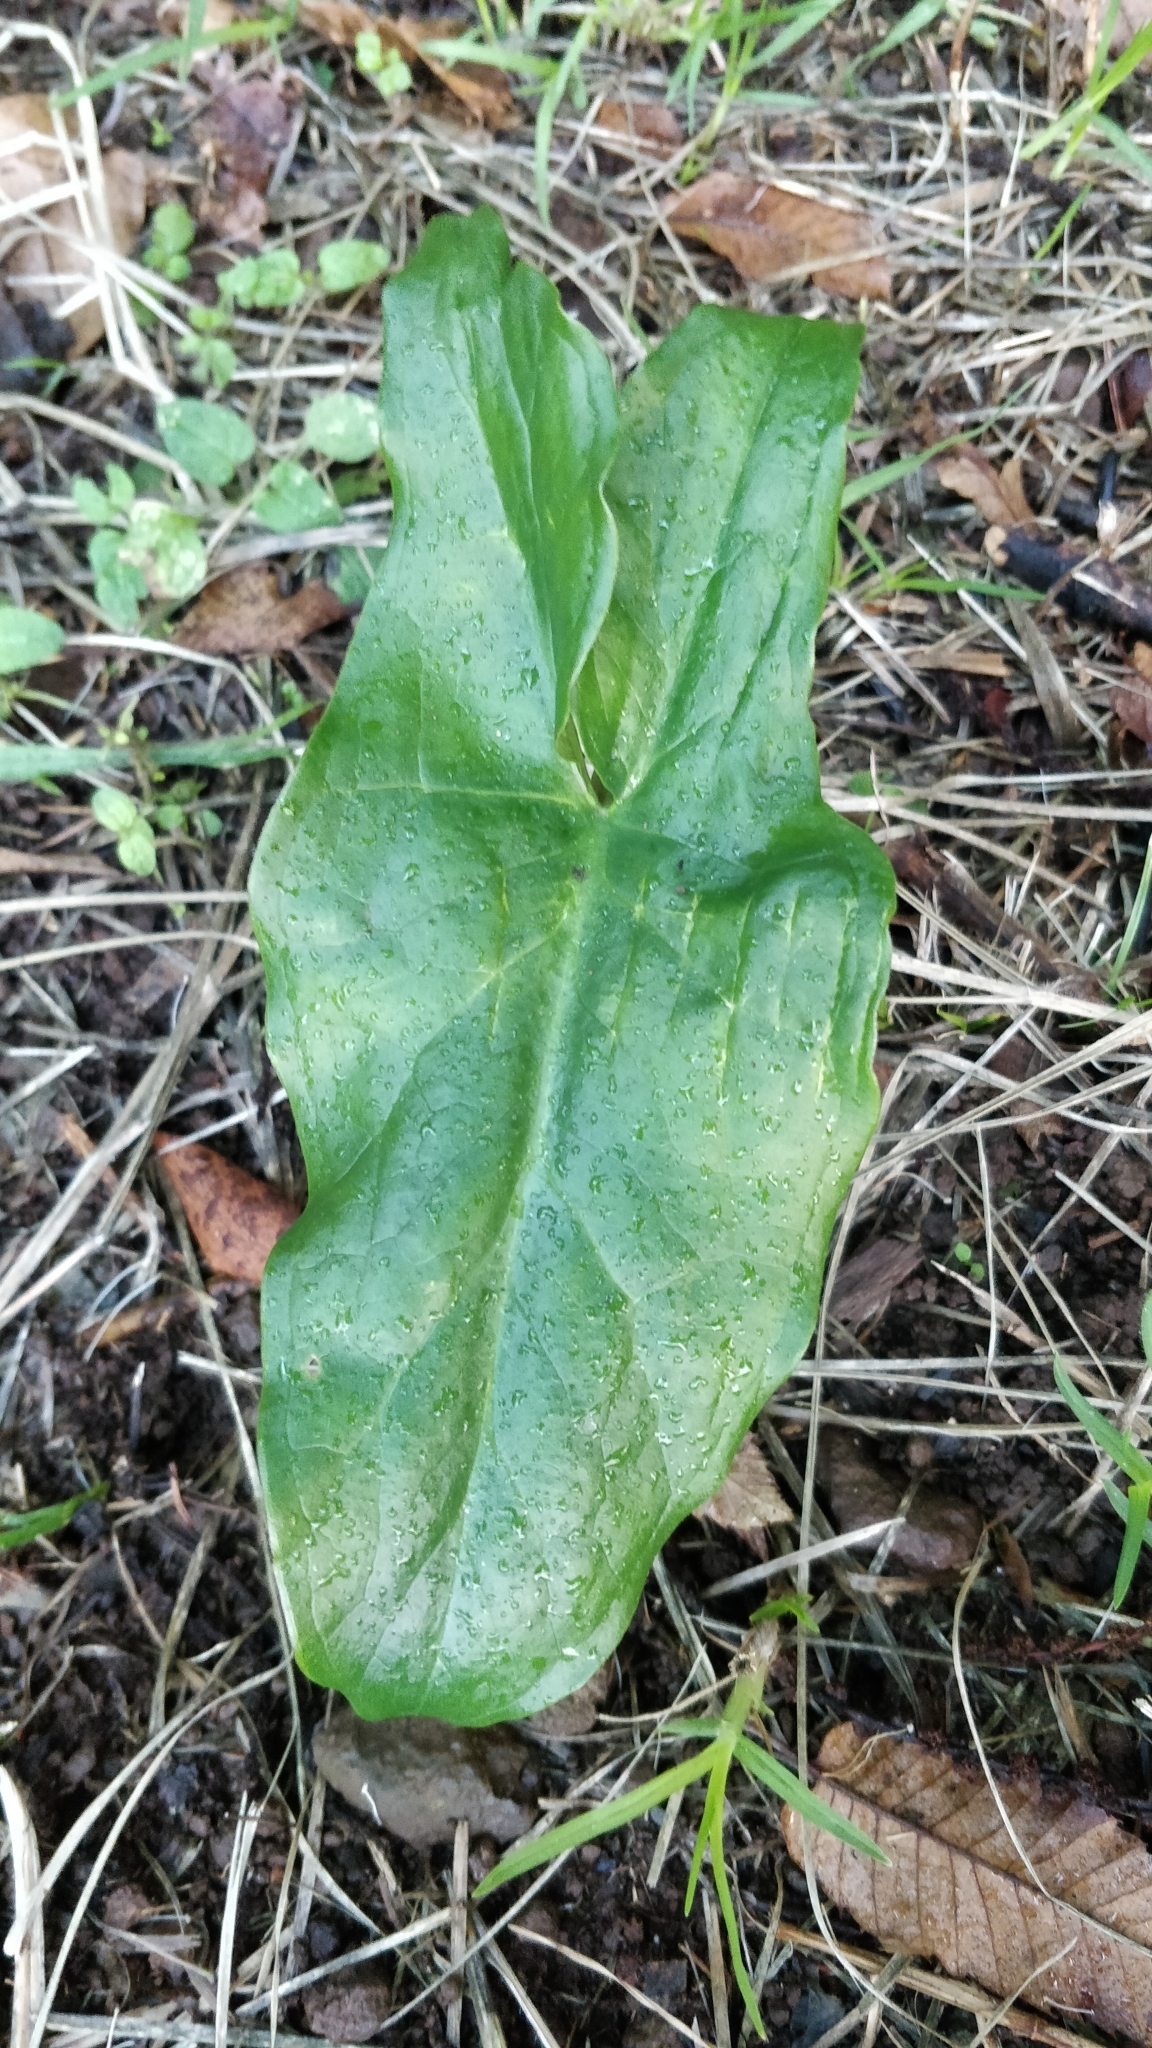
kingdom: Plantae
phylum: Tracheophyta
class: Liliopsida
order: Alismatales
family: Araceae
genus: Arum
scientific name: Arum italicum
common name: Italian lords-and-ladies
